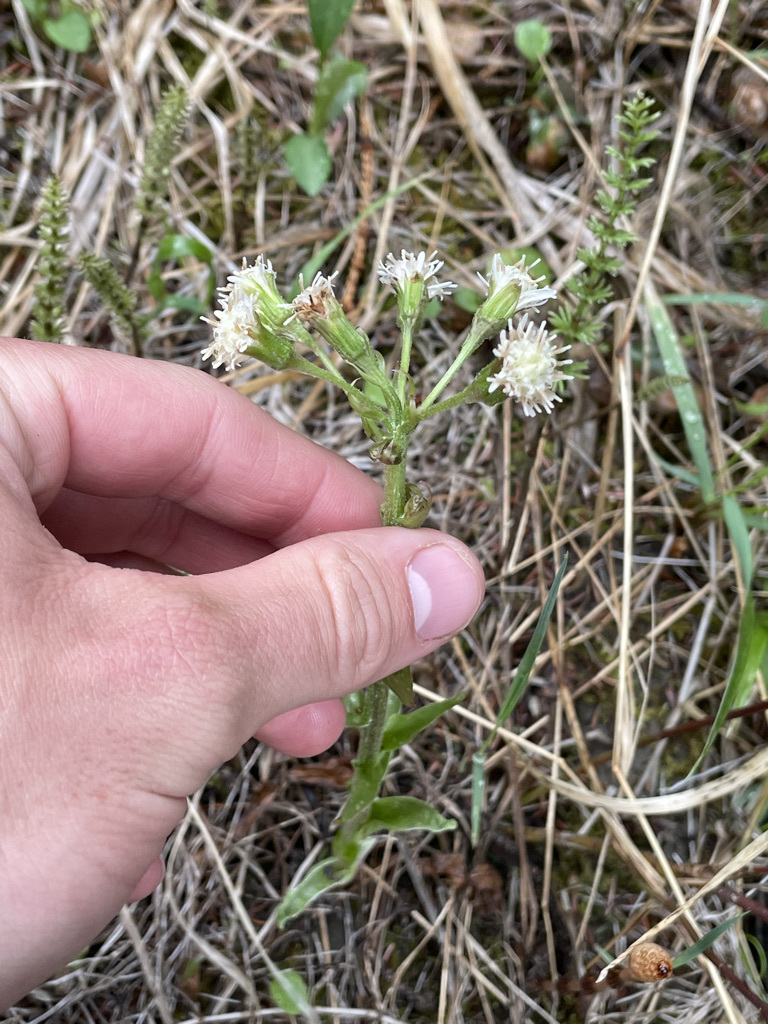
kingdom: Plantae
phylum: Tracheophyta
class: Magnoliopsida
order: Asterales
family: Asteraceae
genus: Petasites
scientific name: Petasites frigidus
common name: Arctic butterbur
